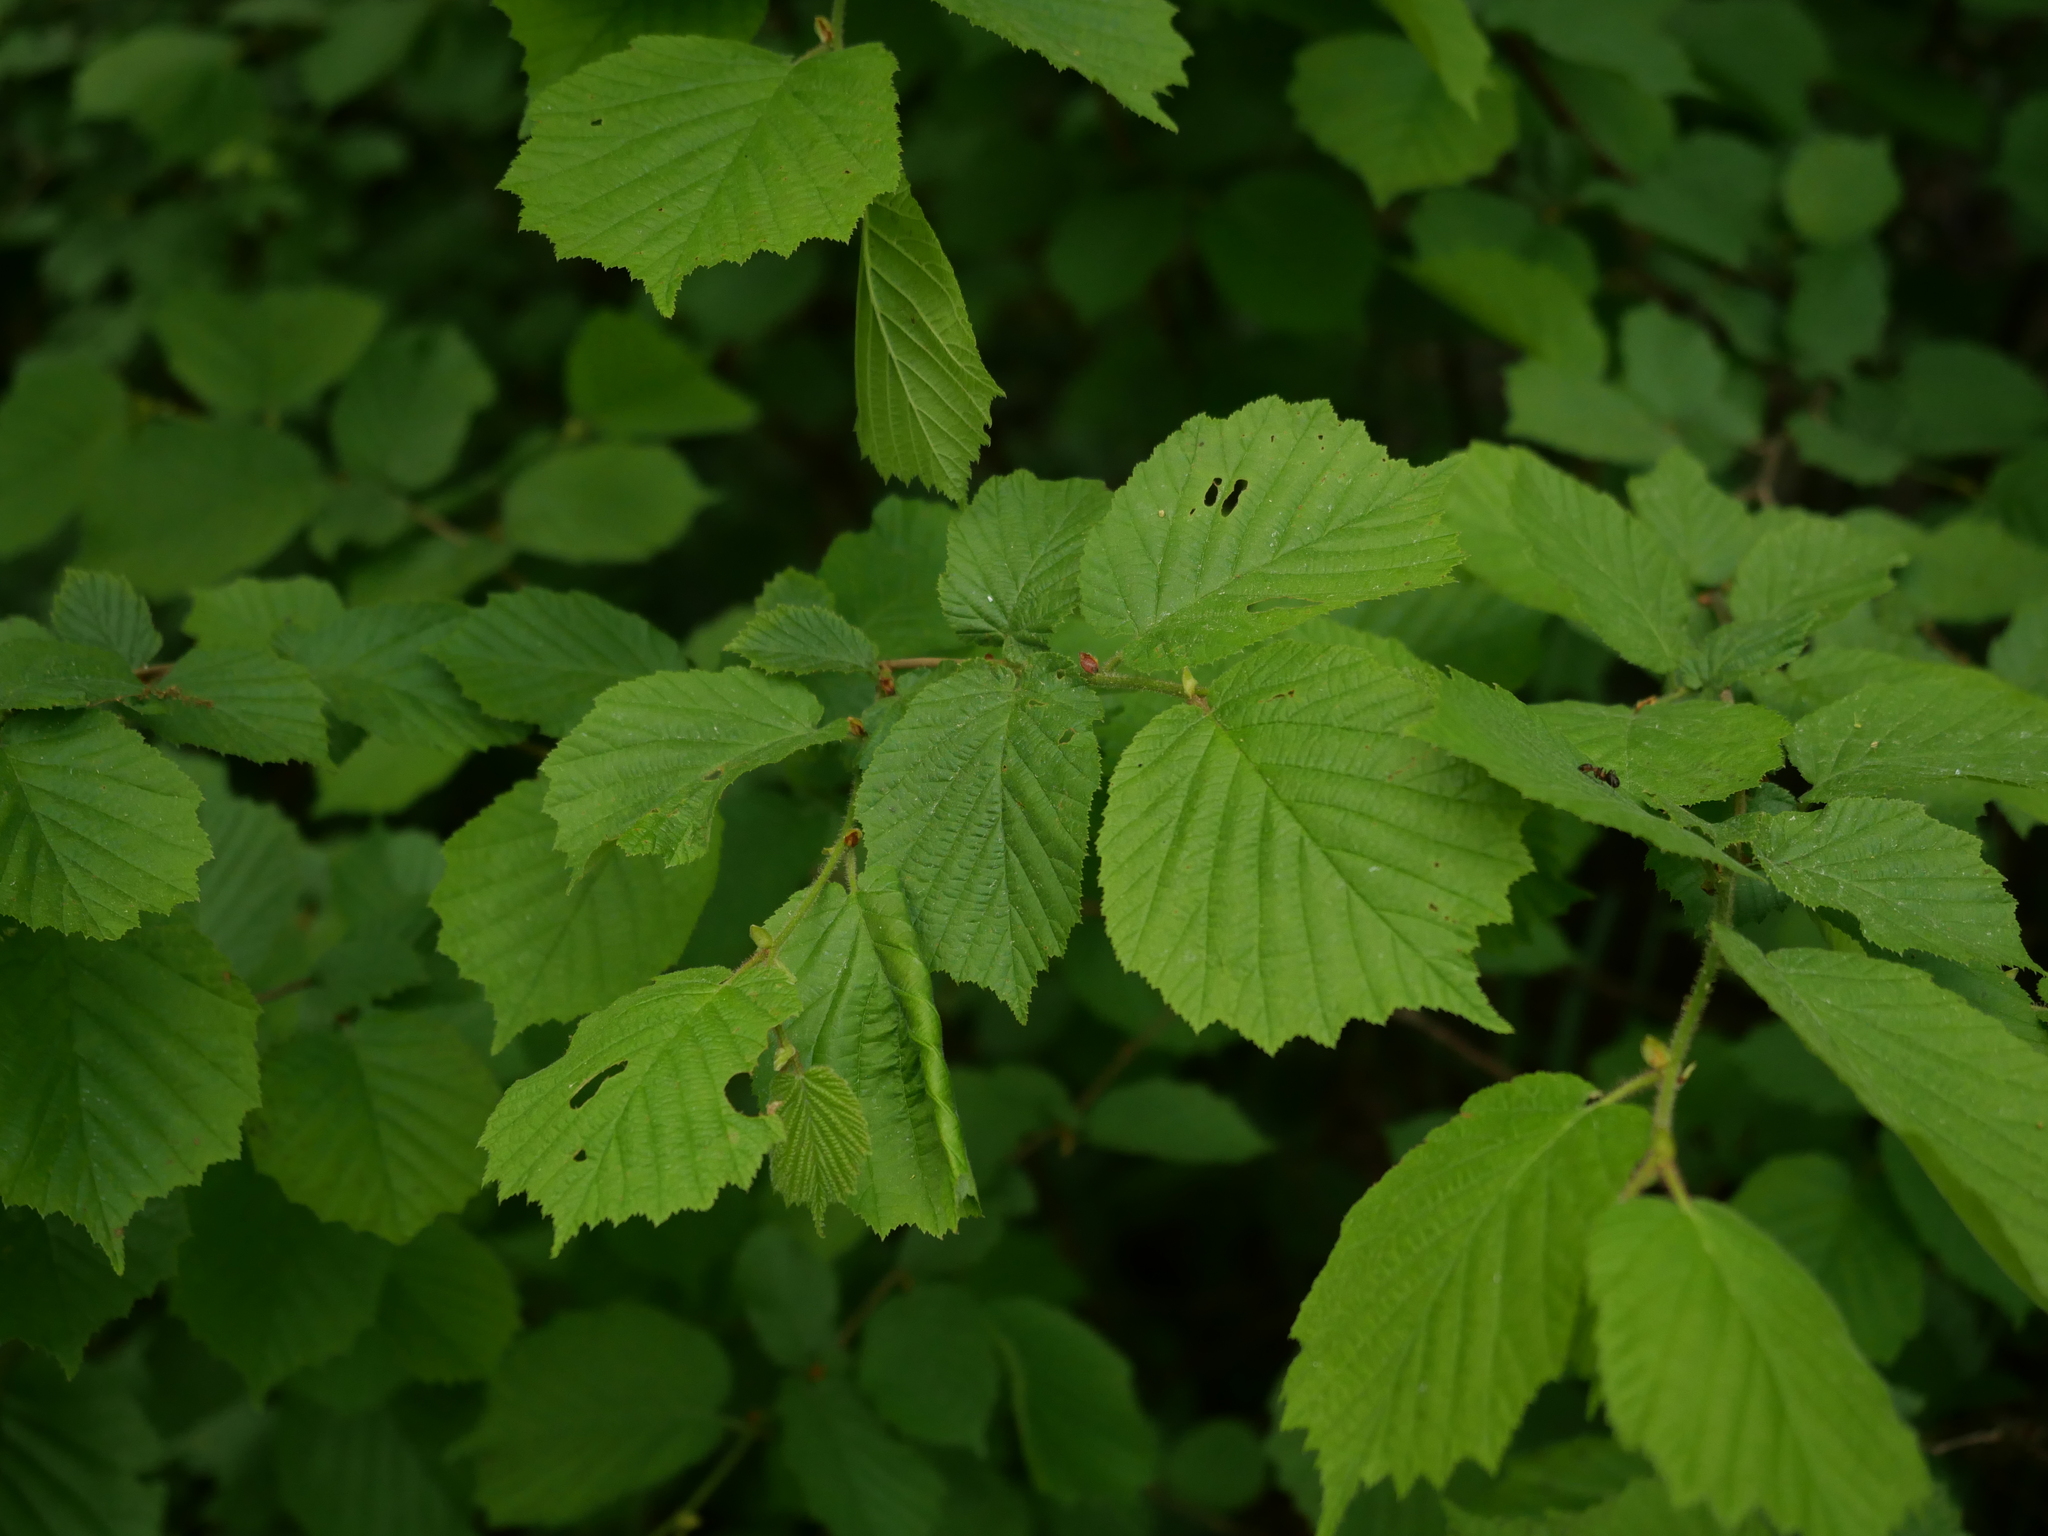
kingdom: Plantae
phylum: Tracheophyta
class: Magnoliopsida
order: Fagales
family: Betulaceae
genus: Corylus
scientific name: Corylus avellana
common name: European hazel
